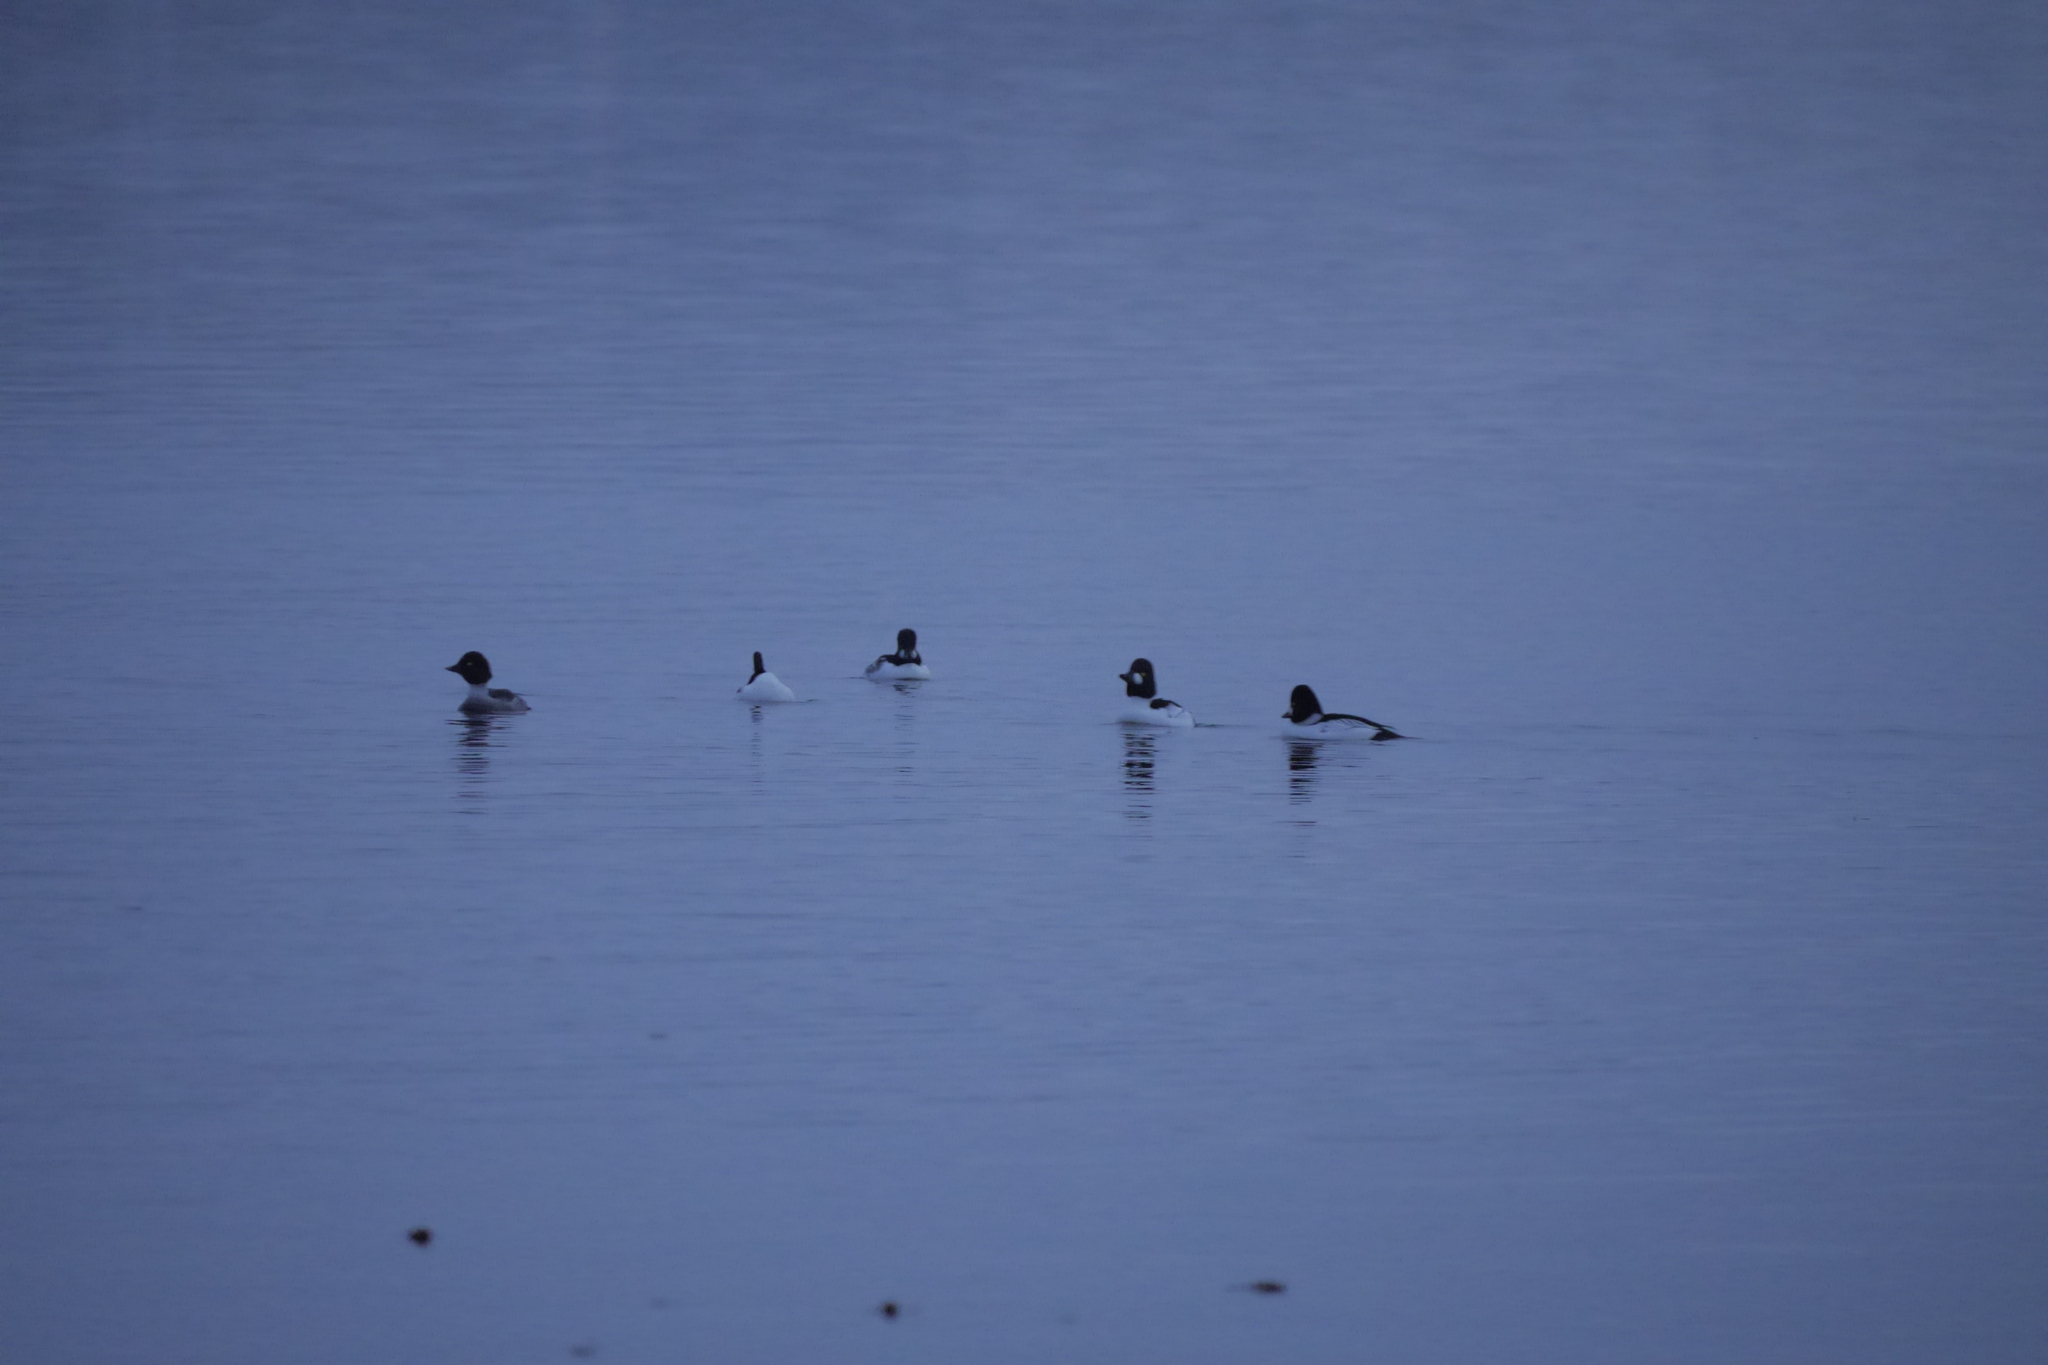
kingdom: Animalia
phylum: Chordata
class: Aves
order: Anseriformes
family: Anatidae
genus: Bucephala
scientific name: Bucephala clangula
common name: Common goldeneye
